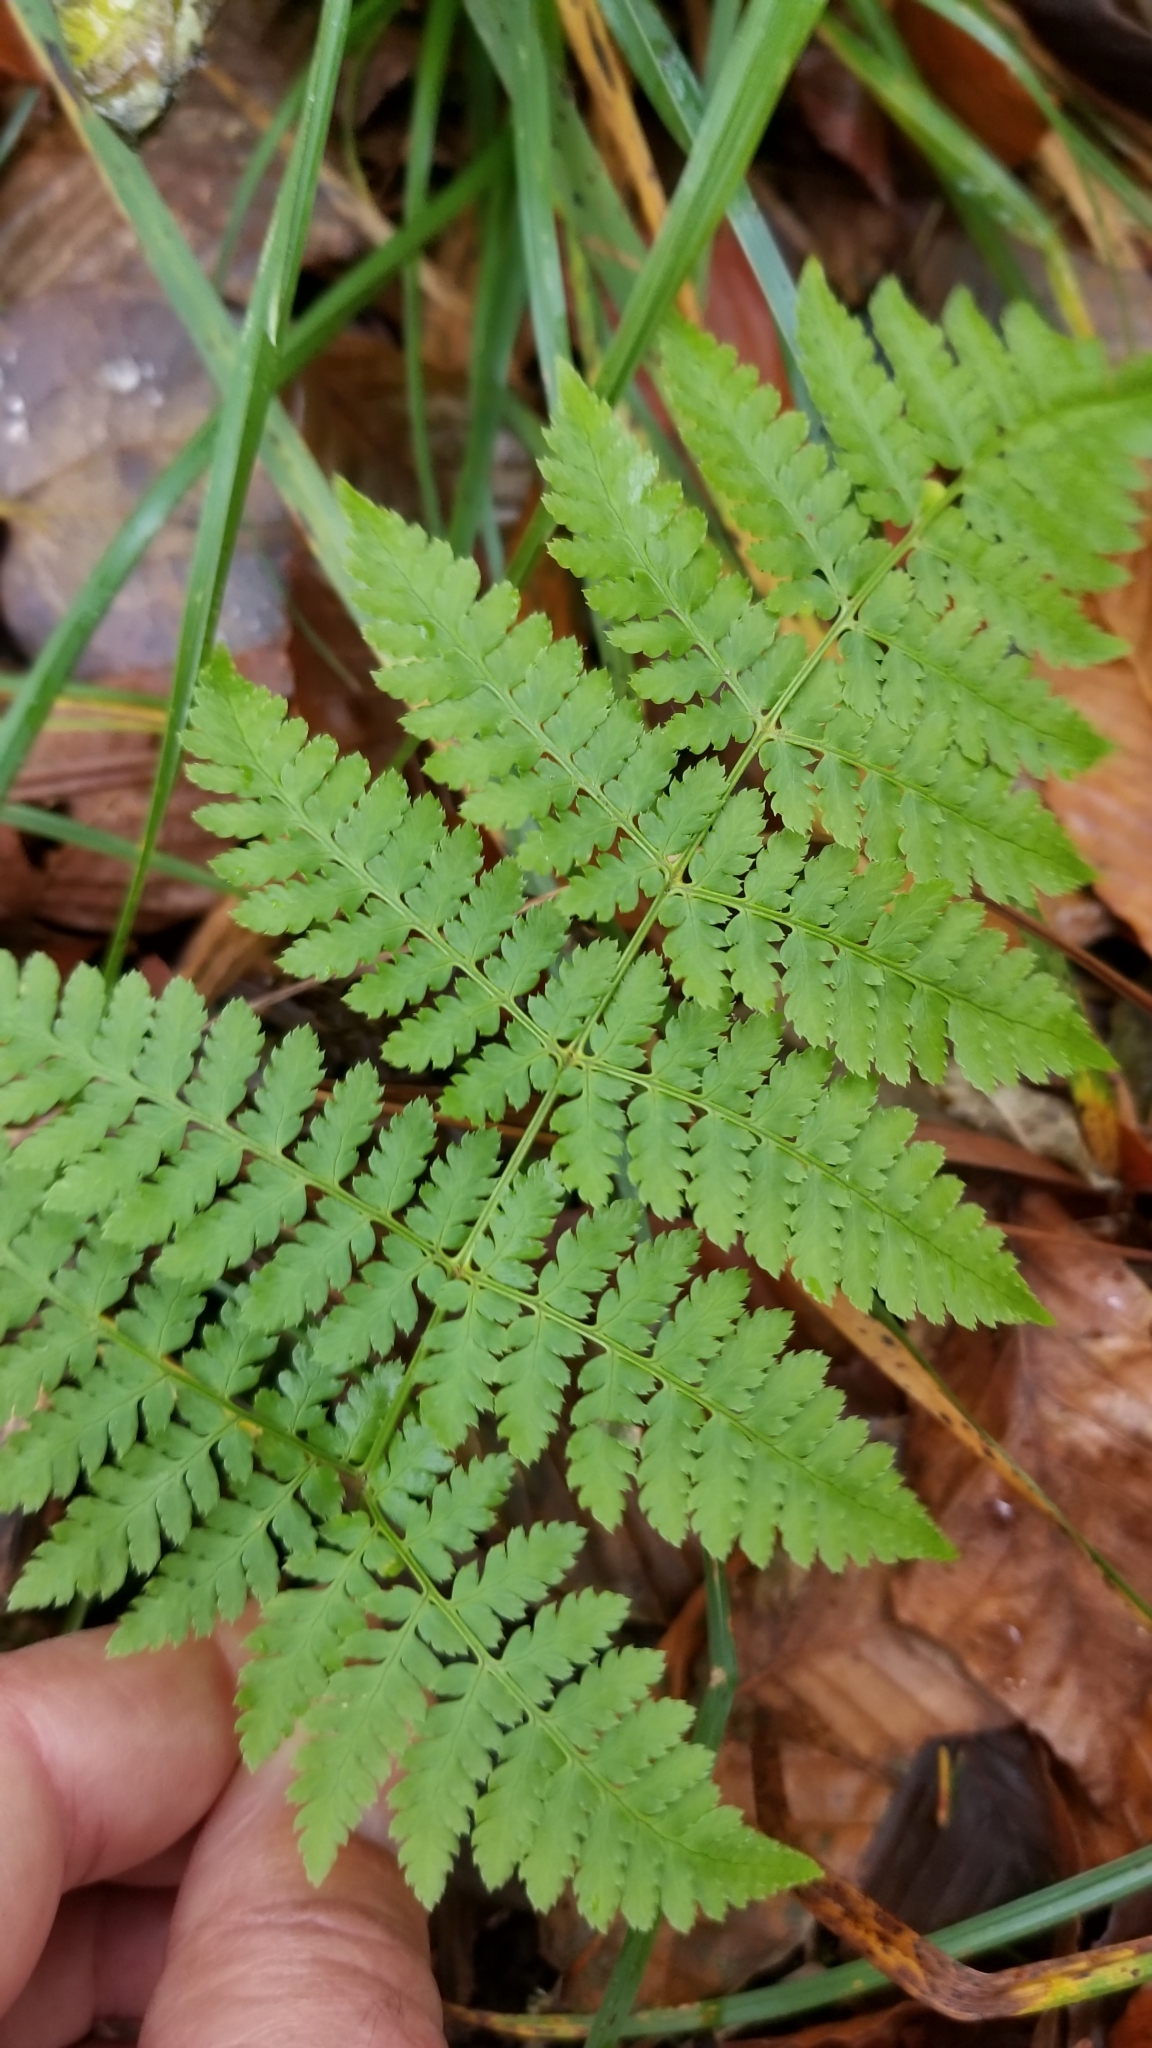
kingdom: Plantae
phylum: Tracheophyta
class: Polypodiopsida
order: Polypodiales
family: Dryopteridaceae
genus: Dryopteris
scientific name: Dryopteris campyloptera
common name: Mountain wood fern
